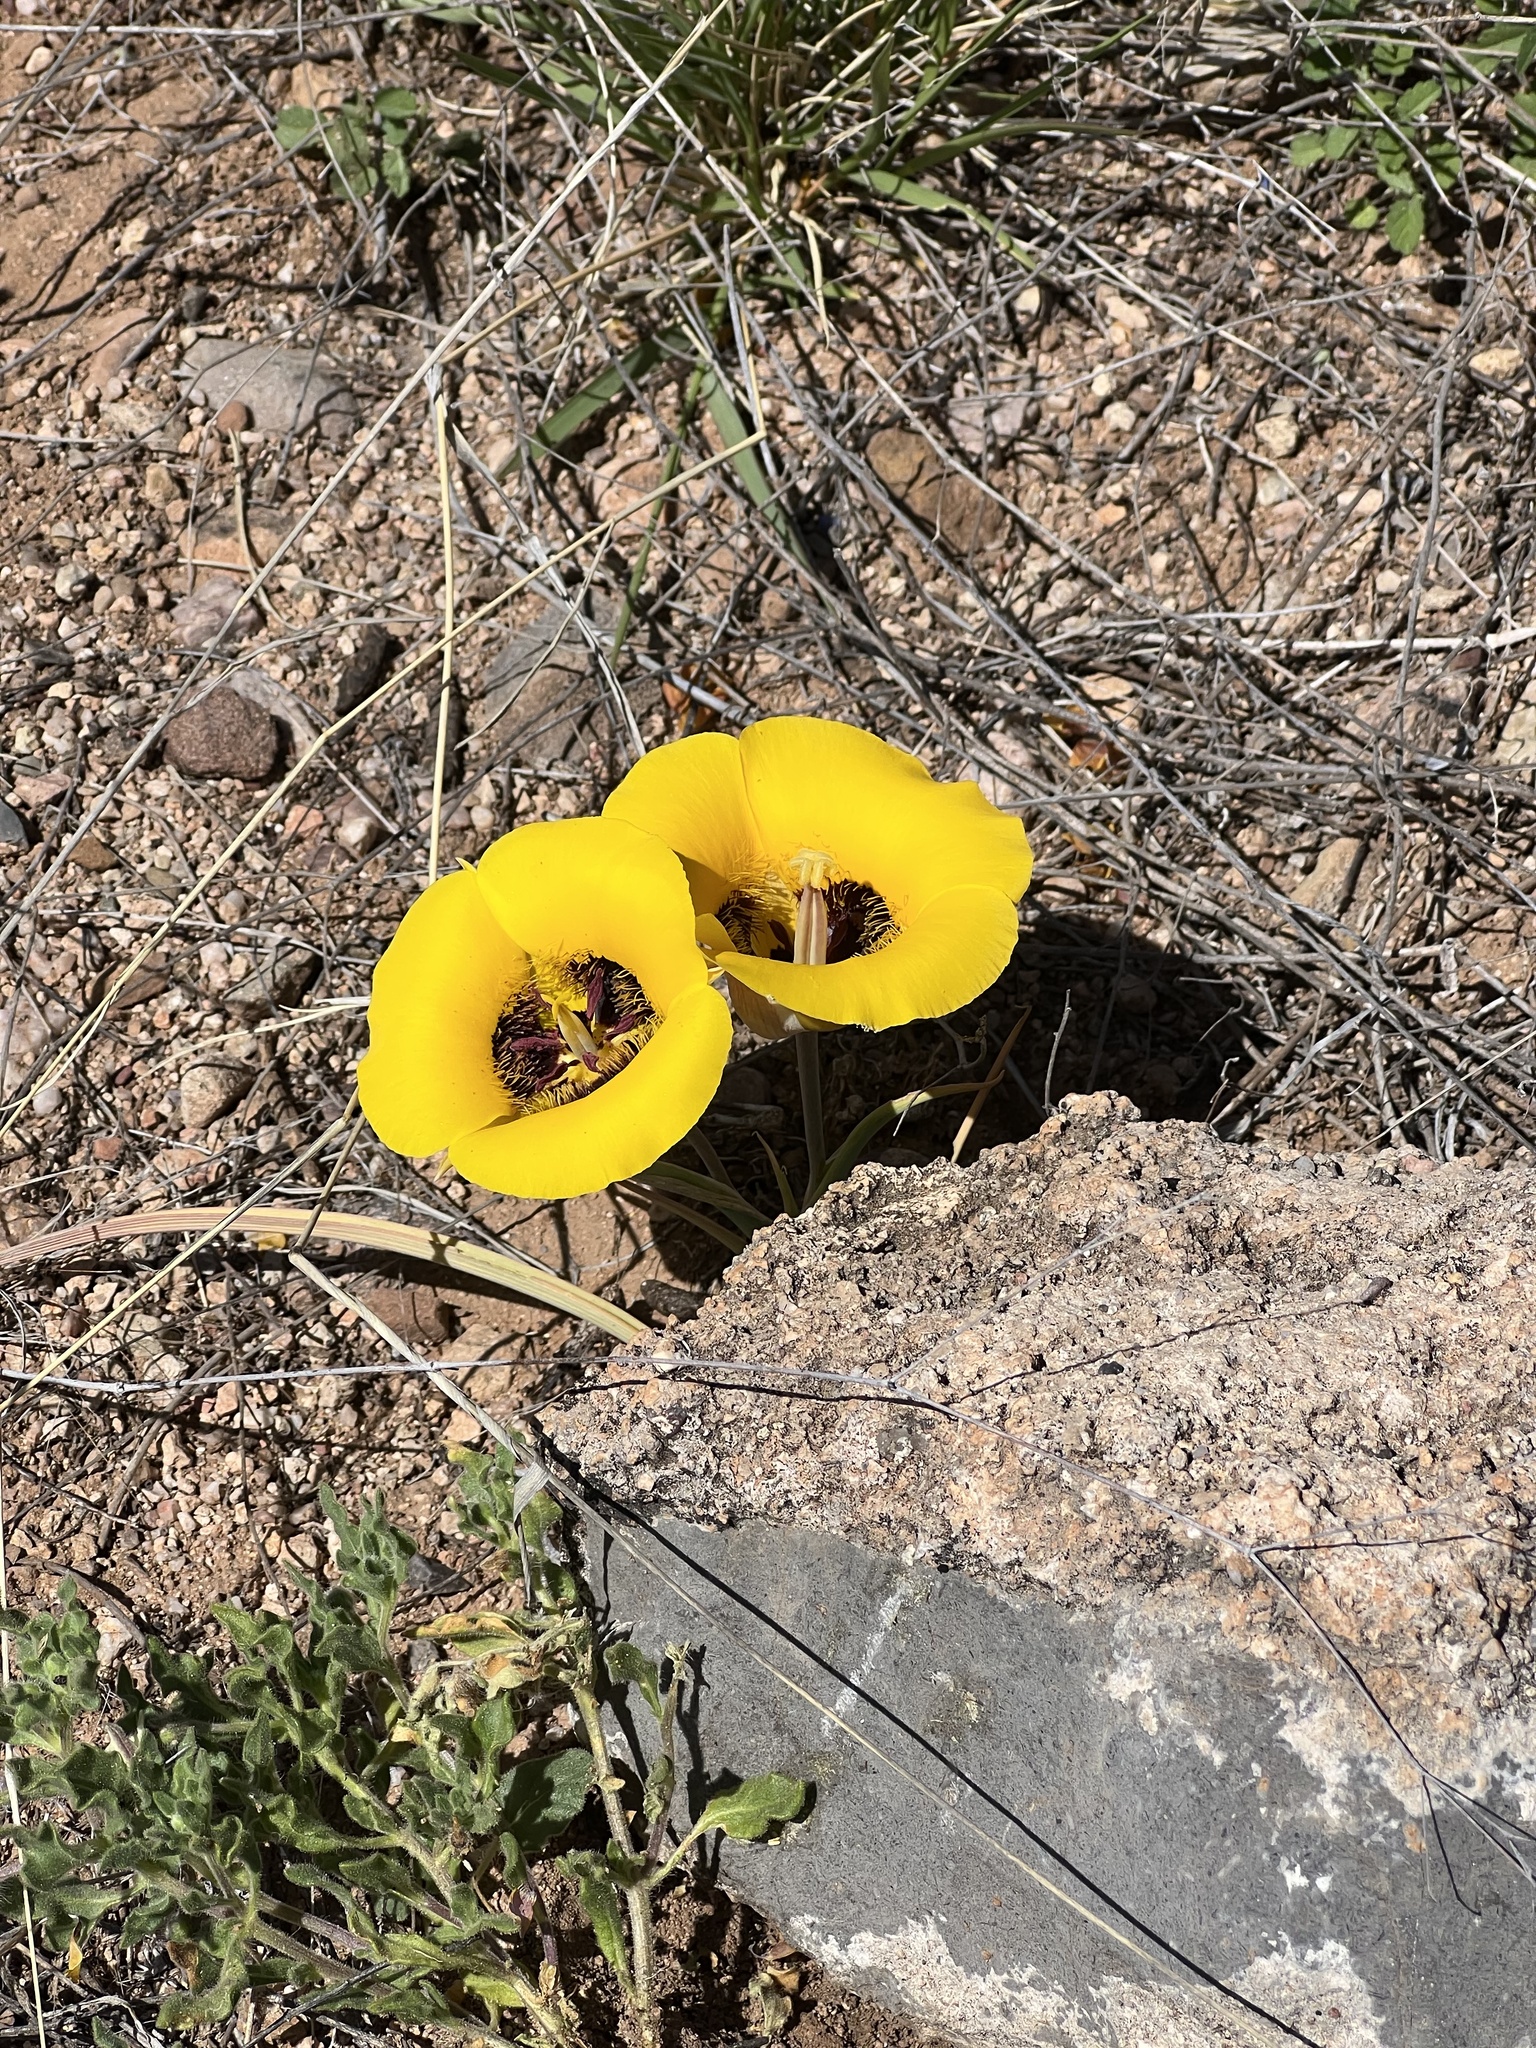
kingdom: Plantae
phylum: Tracheophyta
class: Liliopsida
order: Liliales
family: Liliaceae
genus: Calochortus
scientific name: Calochortus kennedyi
